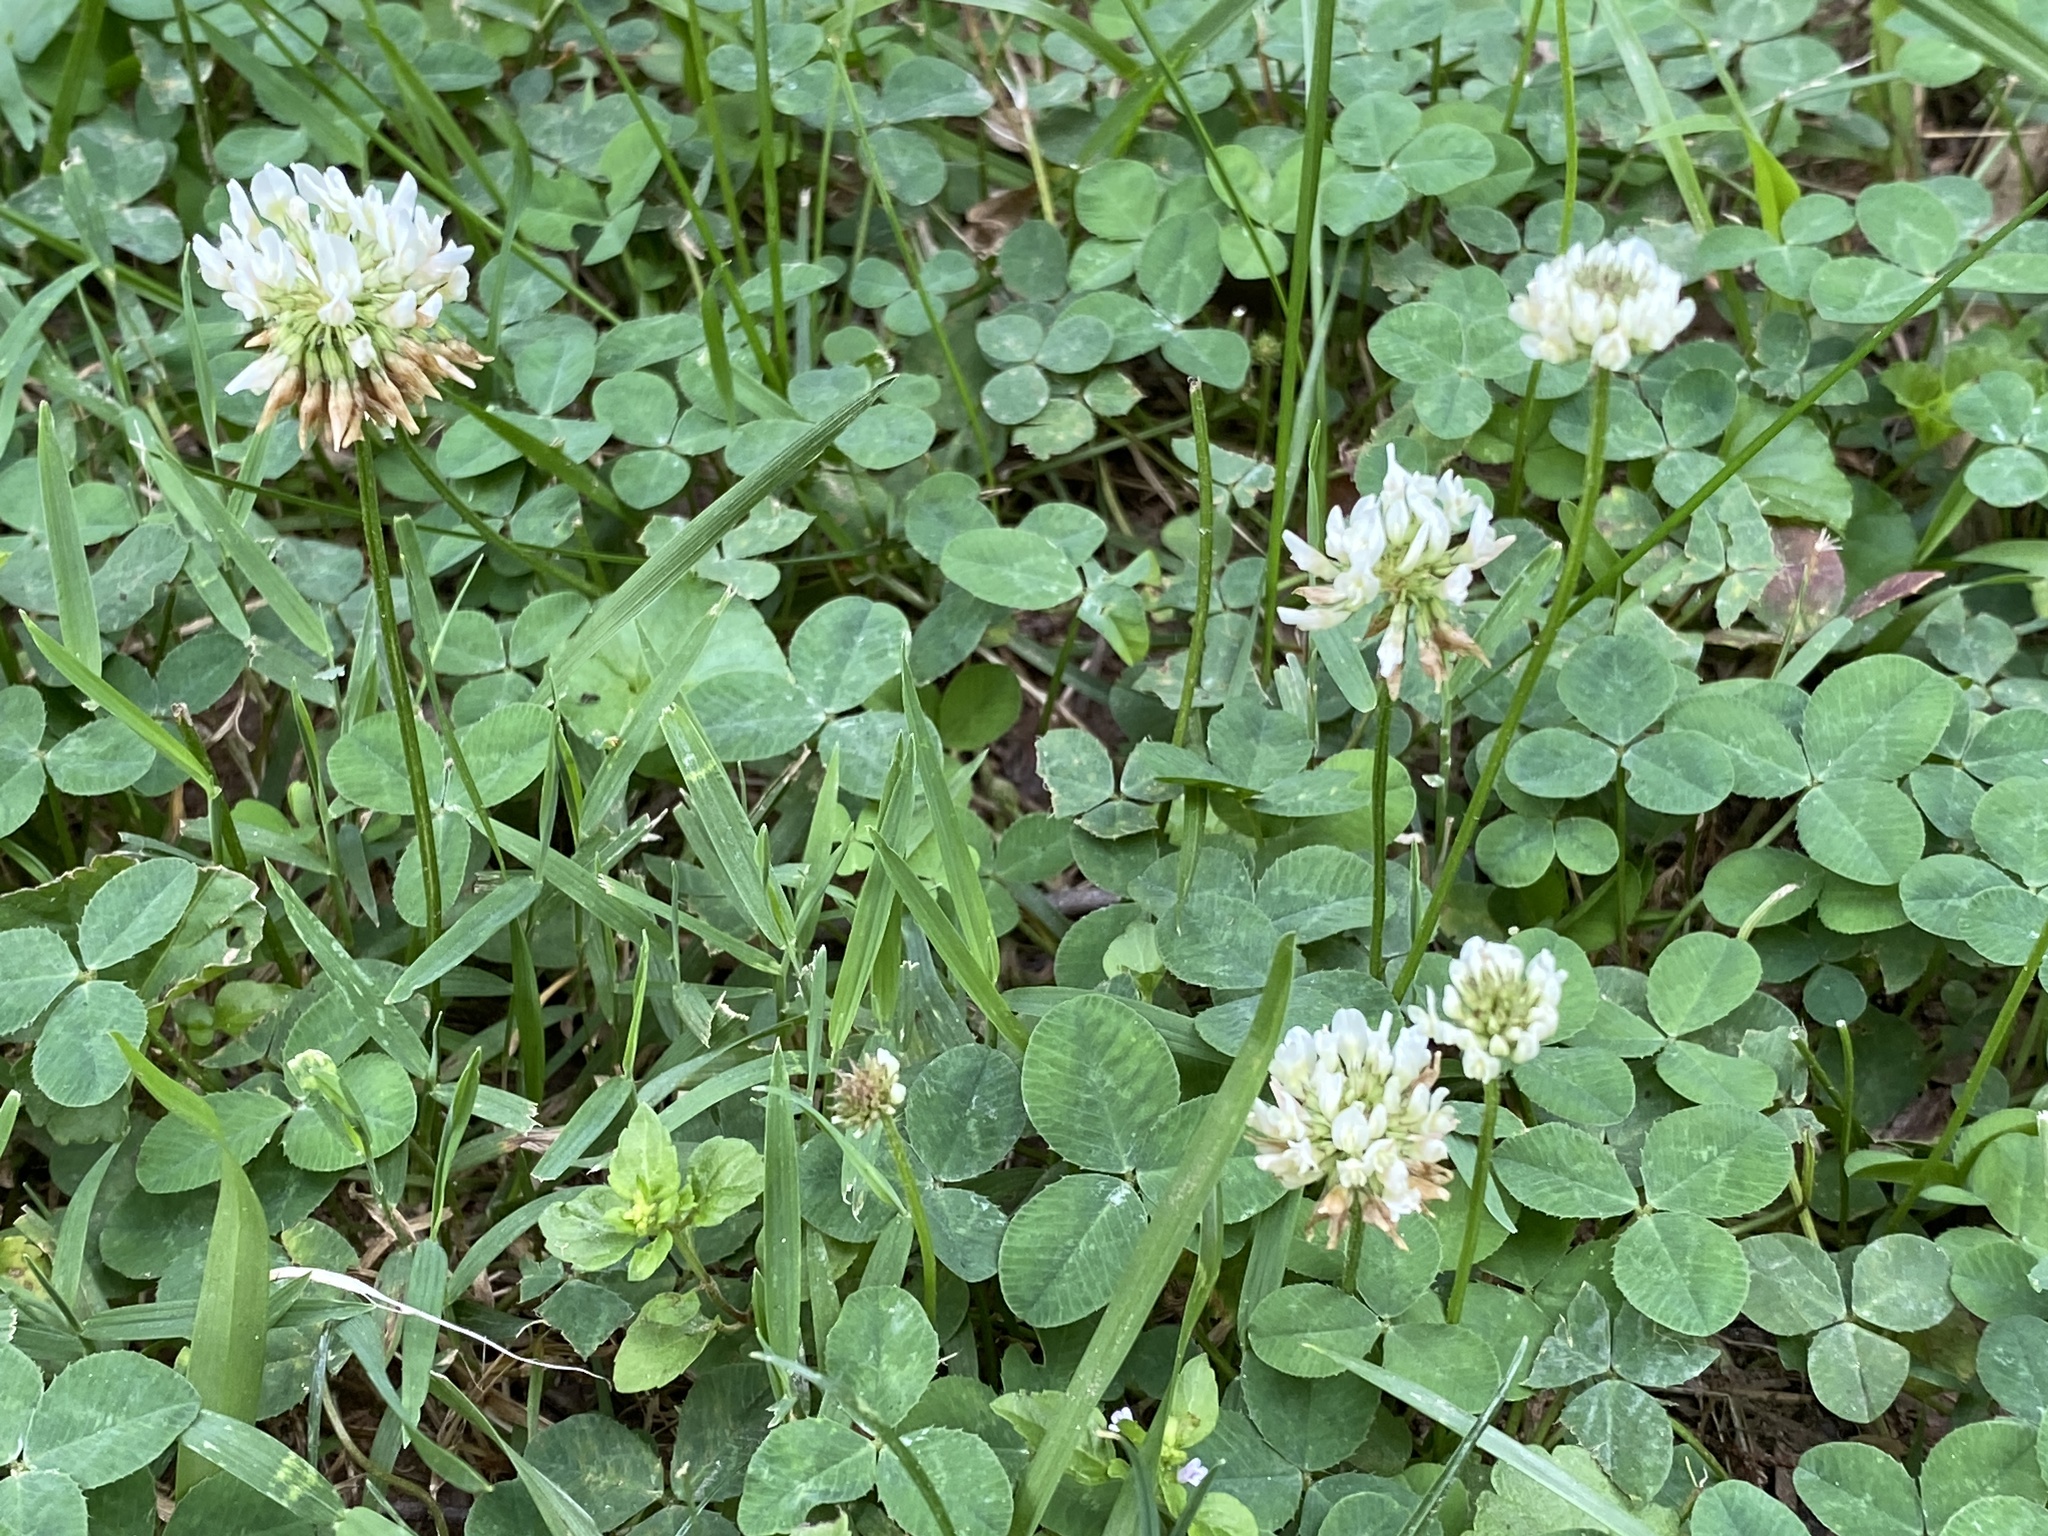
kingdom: Plantae
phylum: Tracheophyta
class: Magnoliopsida
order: Fabales
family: Fabaceae
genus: Trifolium
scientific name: Trifolium repens
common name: White clover
